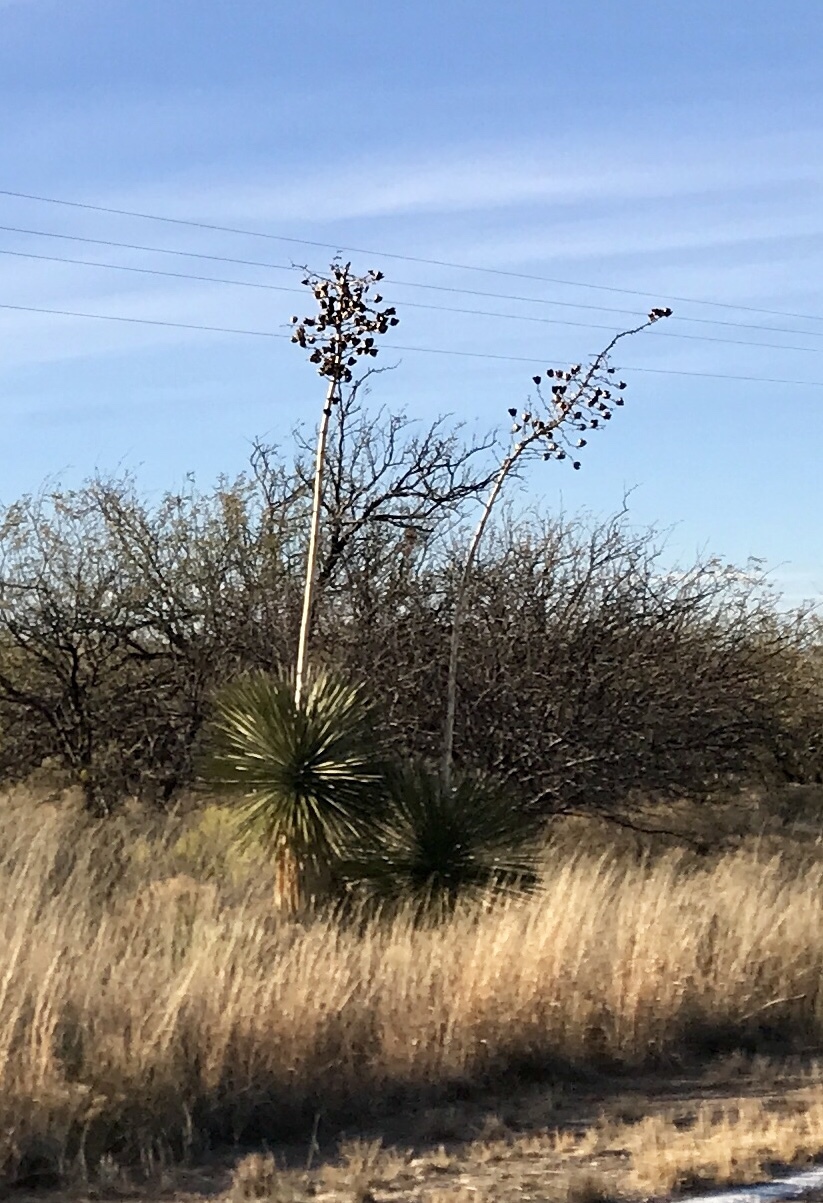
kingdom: Plantae
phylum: Tracheophyta
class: Liliopsida
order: Asparagales
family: Asparagaceae
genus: Yucca
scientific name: Yucca elata
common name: Palmella
